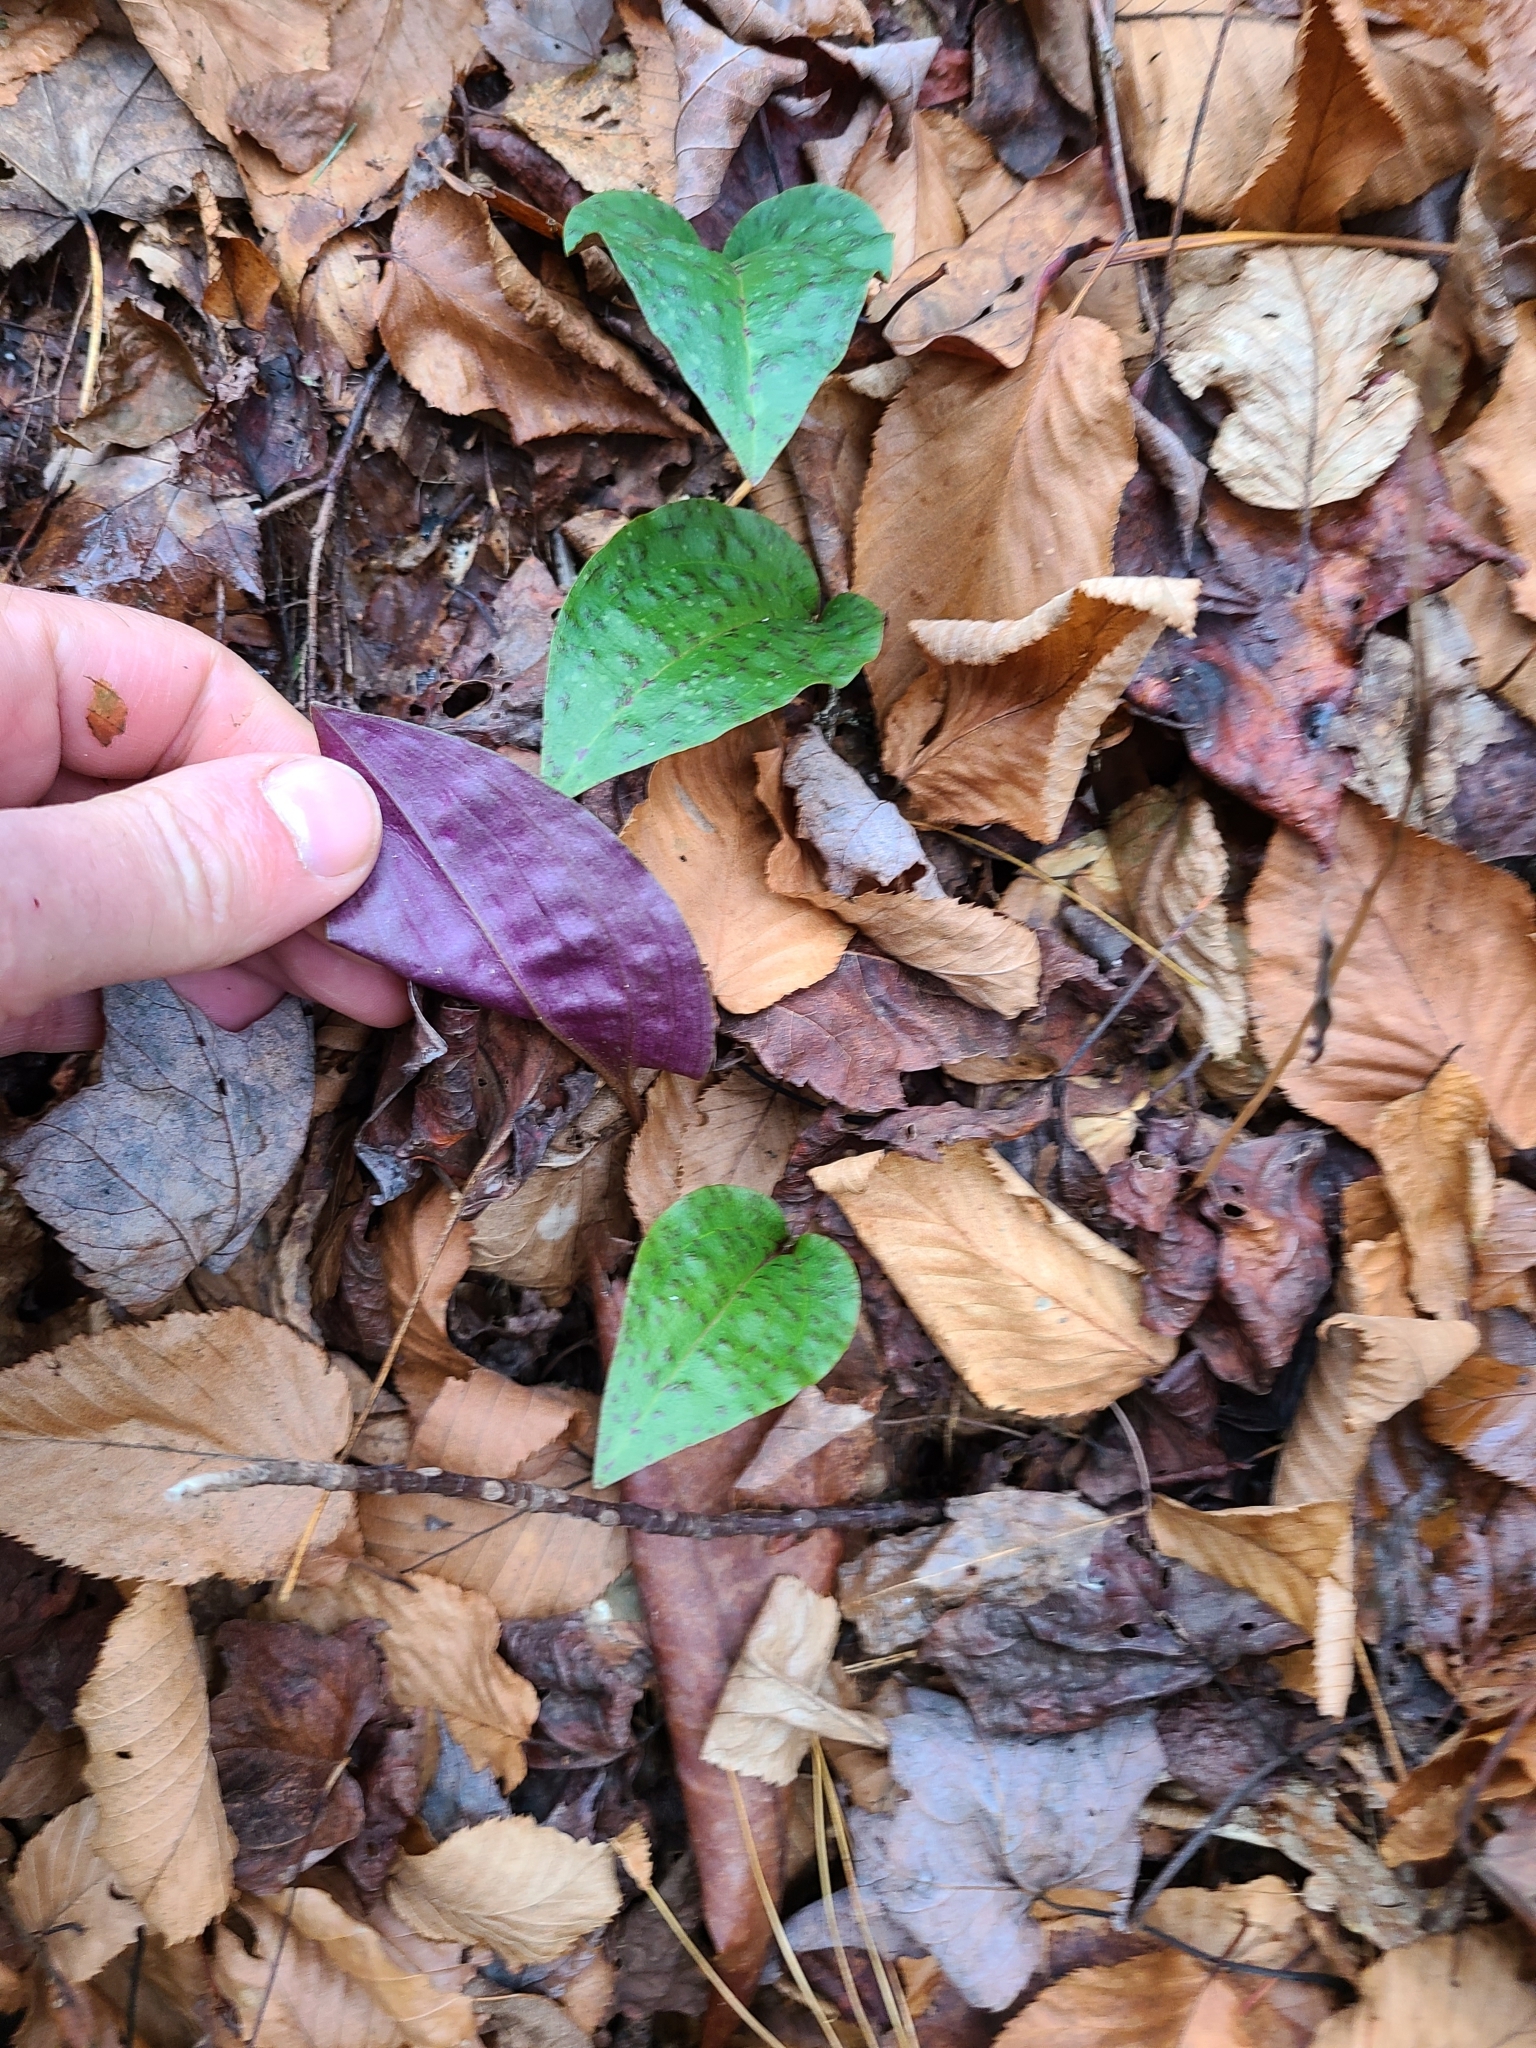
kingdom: Plantae
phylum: Tracheophyta
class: Liliopsida
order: Asparagales
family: Orchidaceae
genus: Tipularia
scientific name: Tipularia discolor
